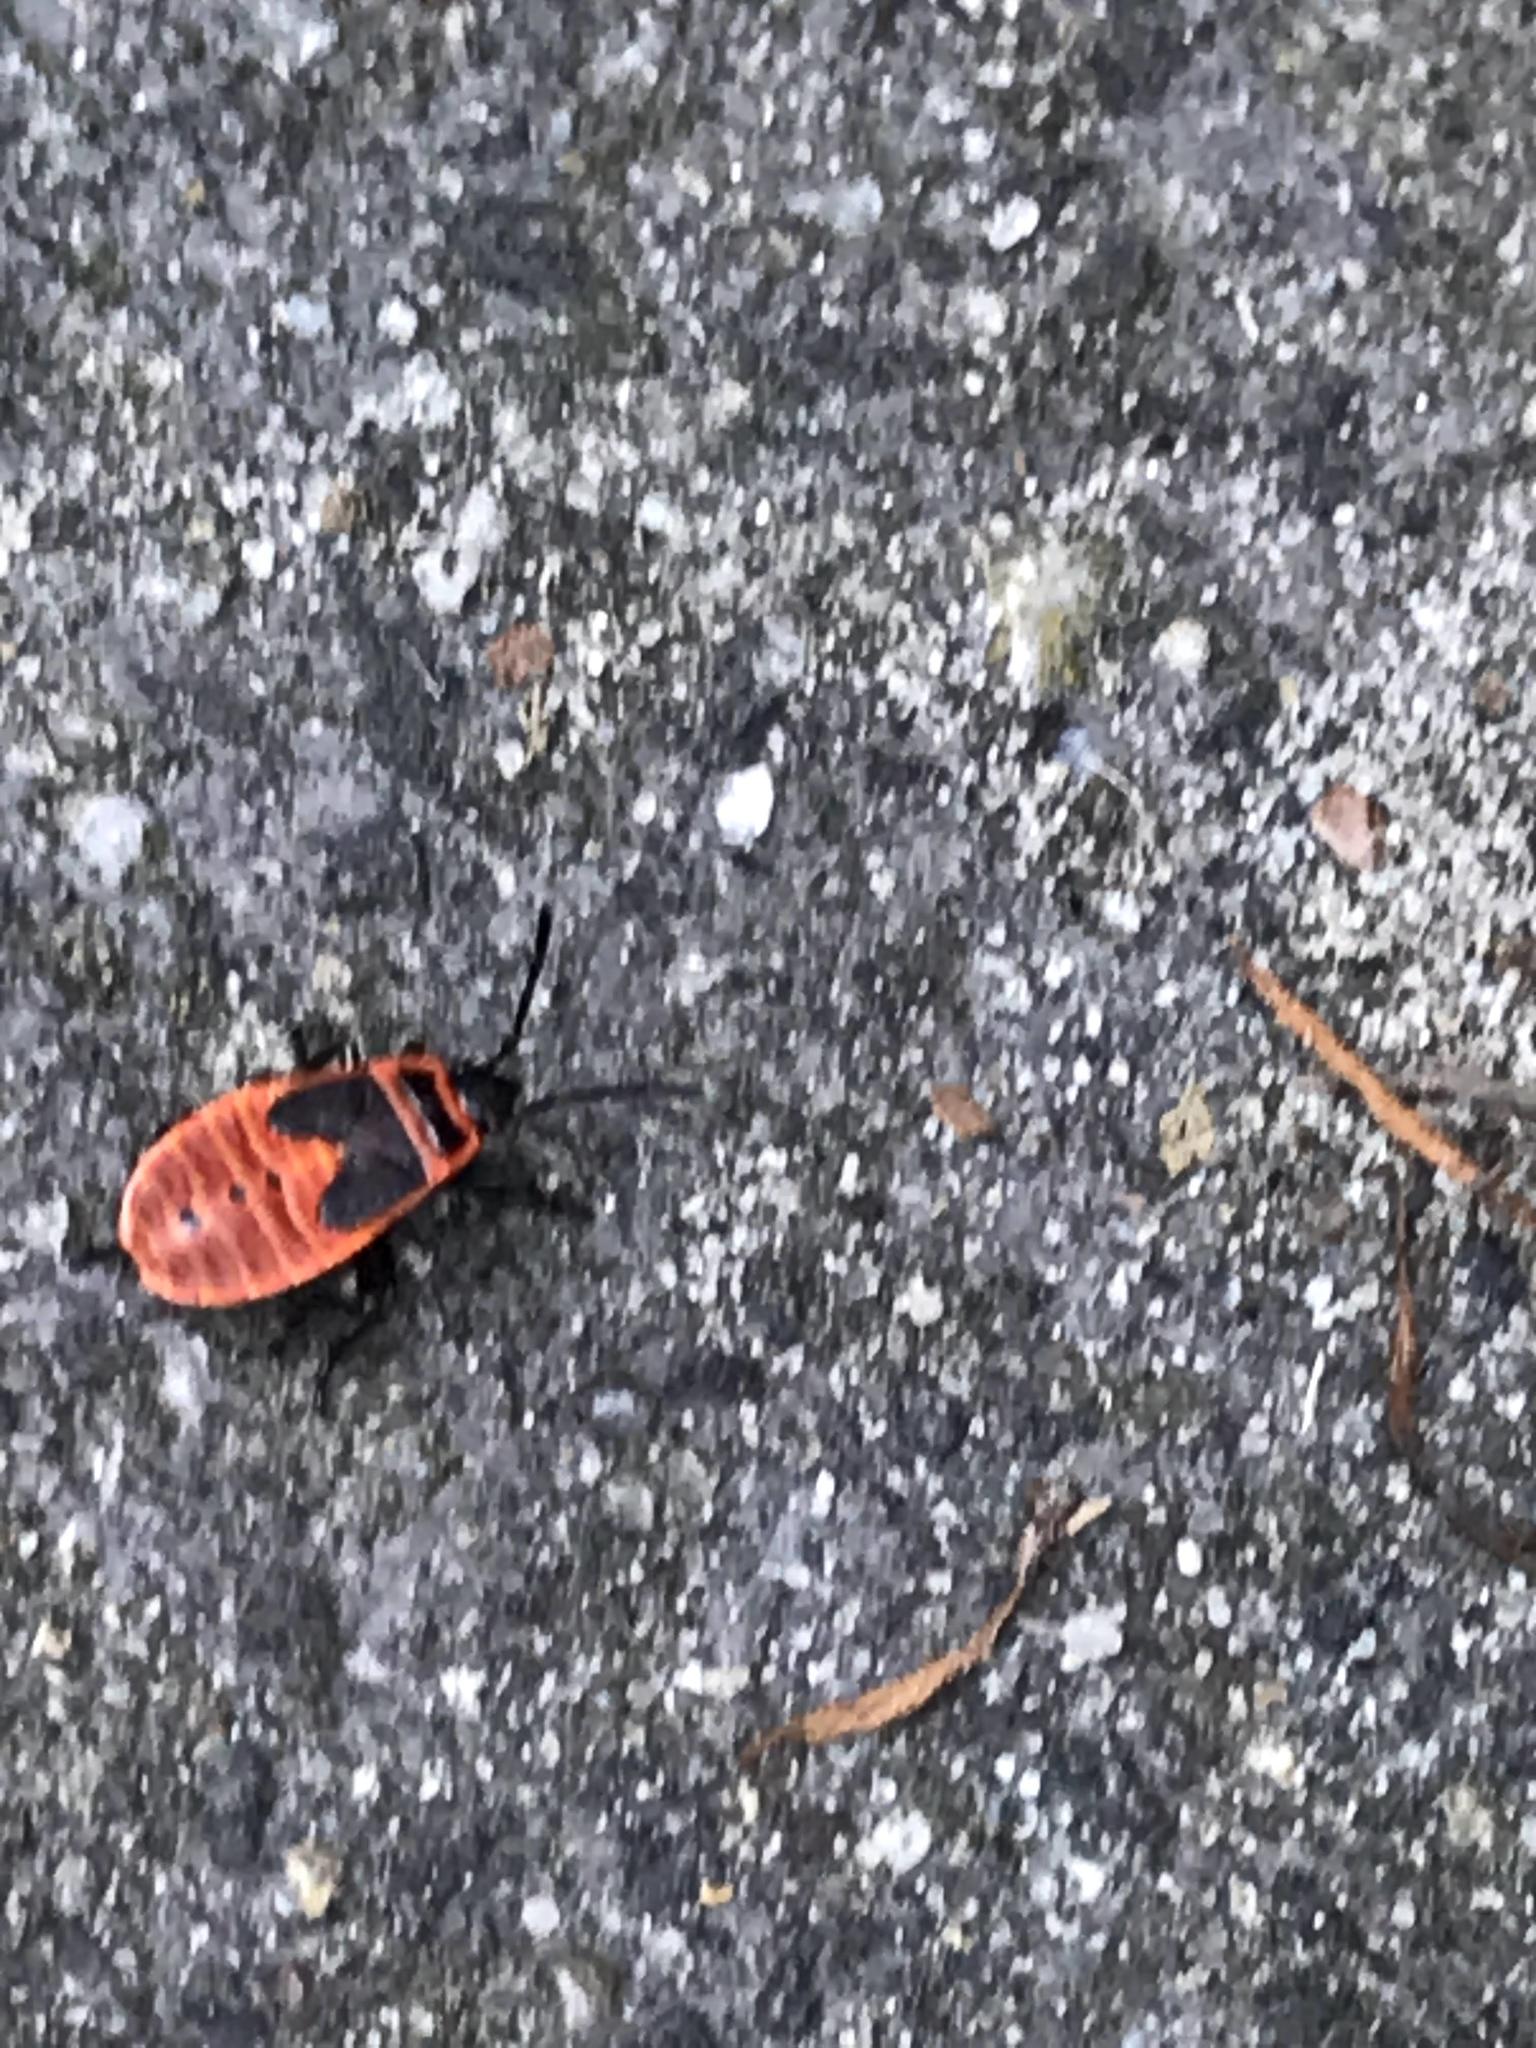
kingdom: Animalia
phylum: Arthropoda
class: Insecta
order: Hemiptera
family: Pyrrhocoridae
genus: Pyrrhocoris
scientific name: Pyrrhocoris apterus
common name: Firebug
